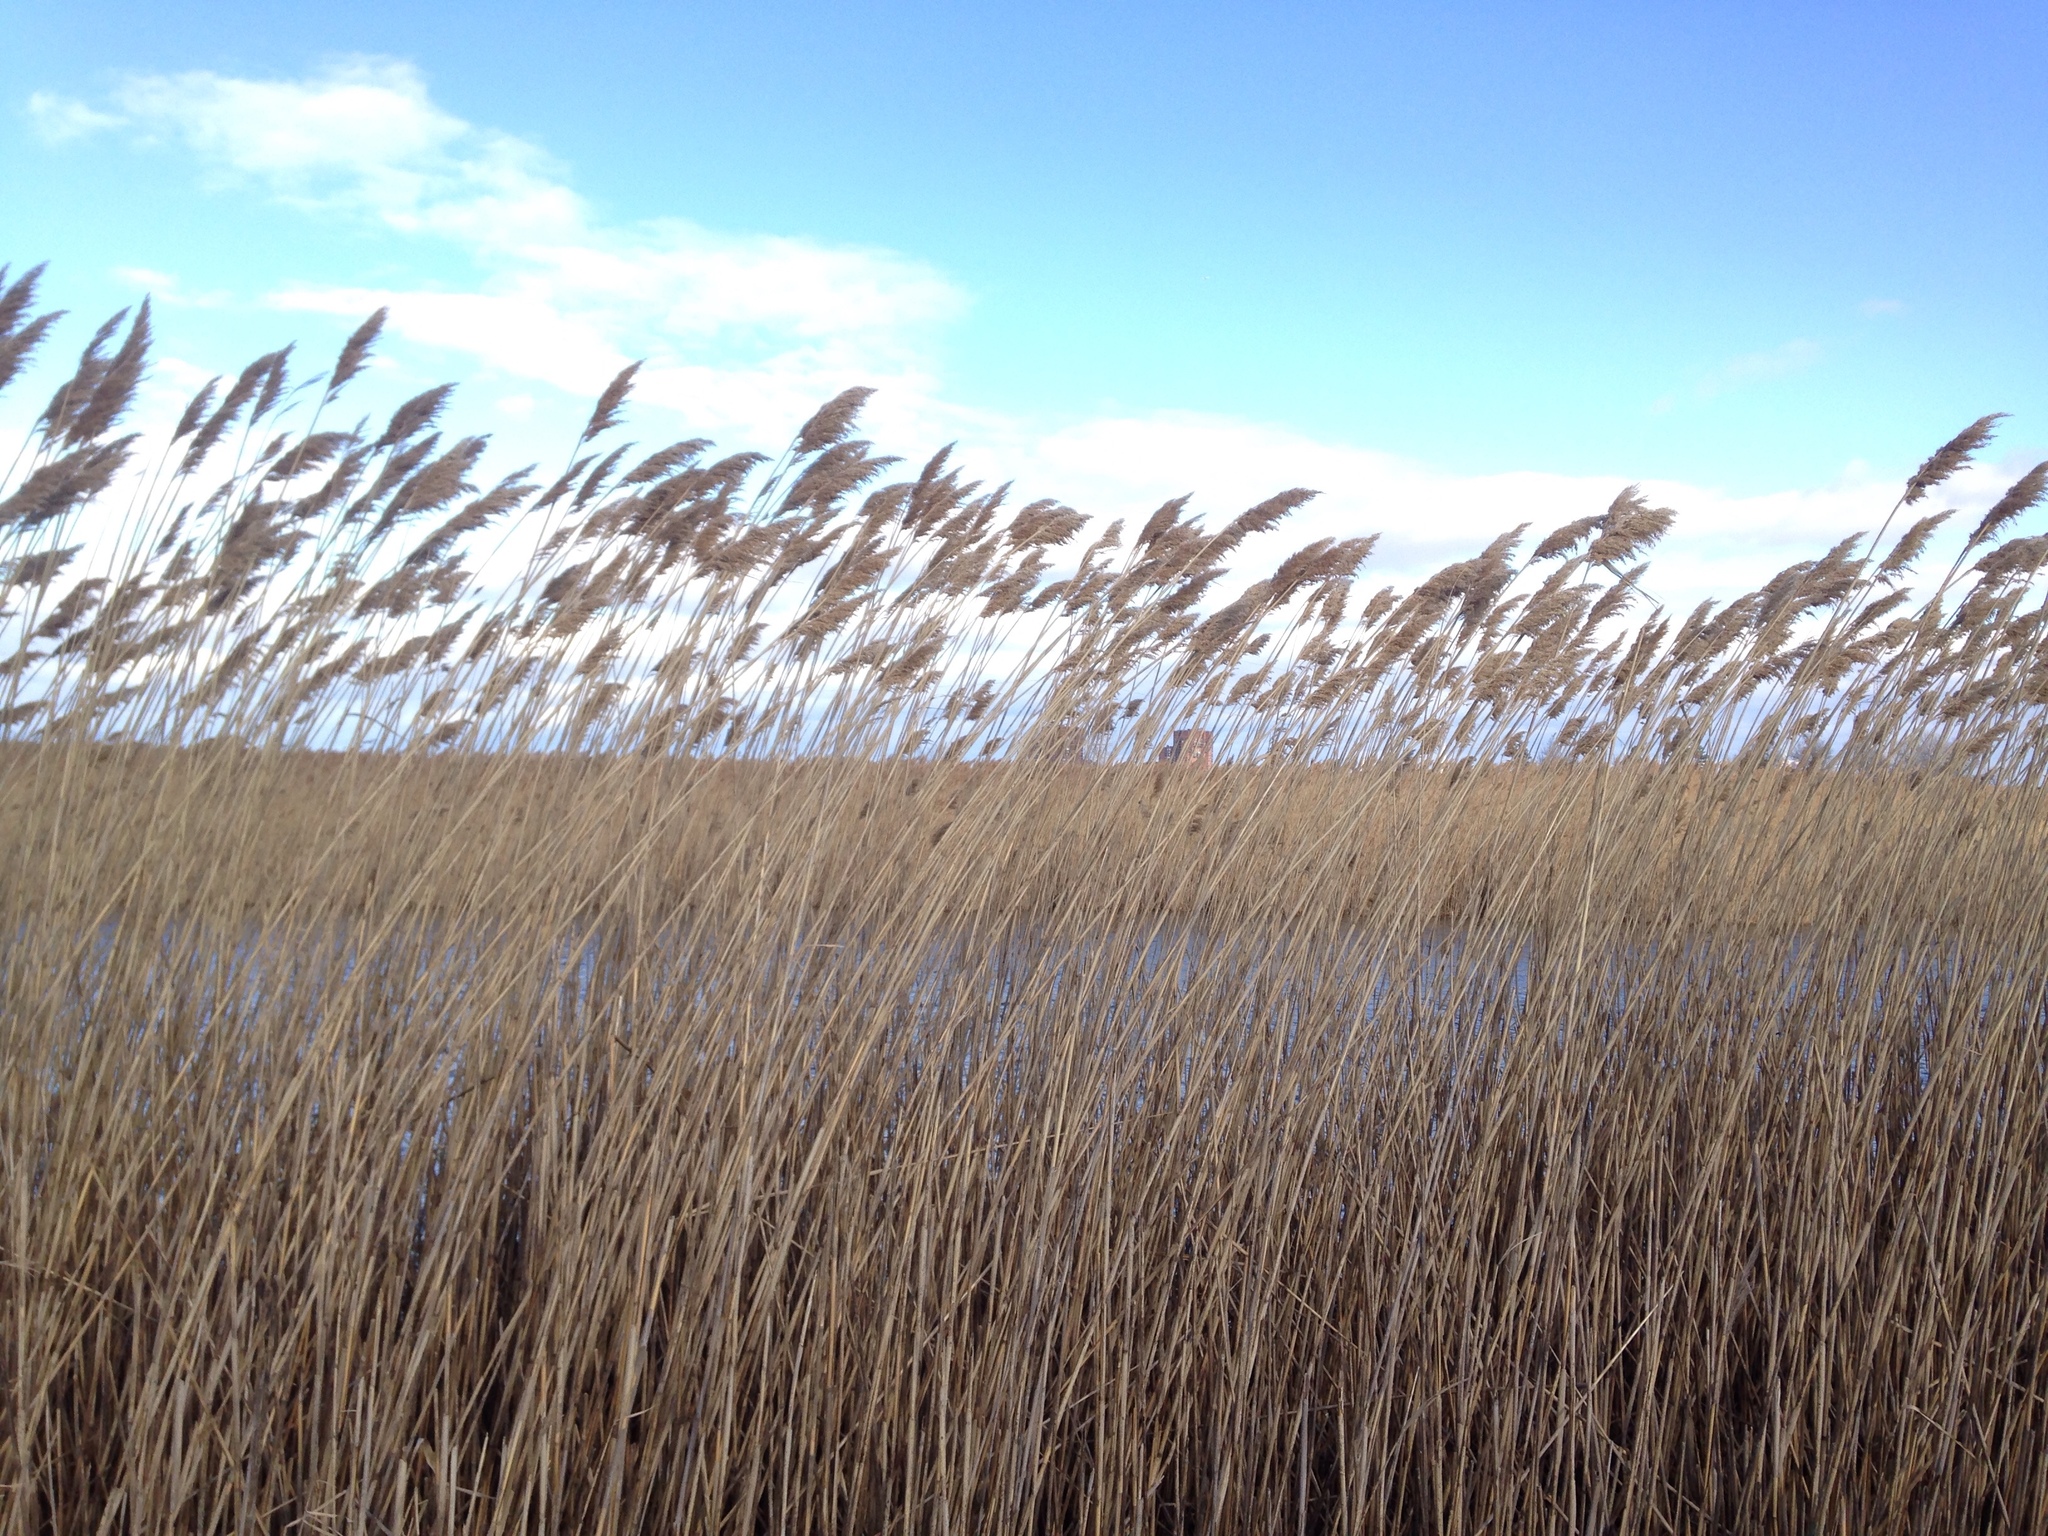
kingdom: Plantae
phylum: Tracheophyta
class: Liliopsida
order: Poales
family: Poaceae
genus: Phragmites
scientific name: Phragmites australis
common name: Common reed
